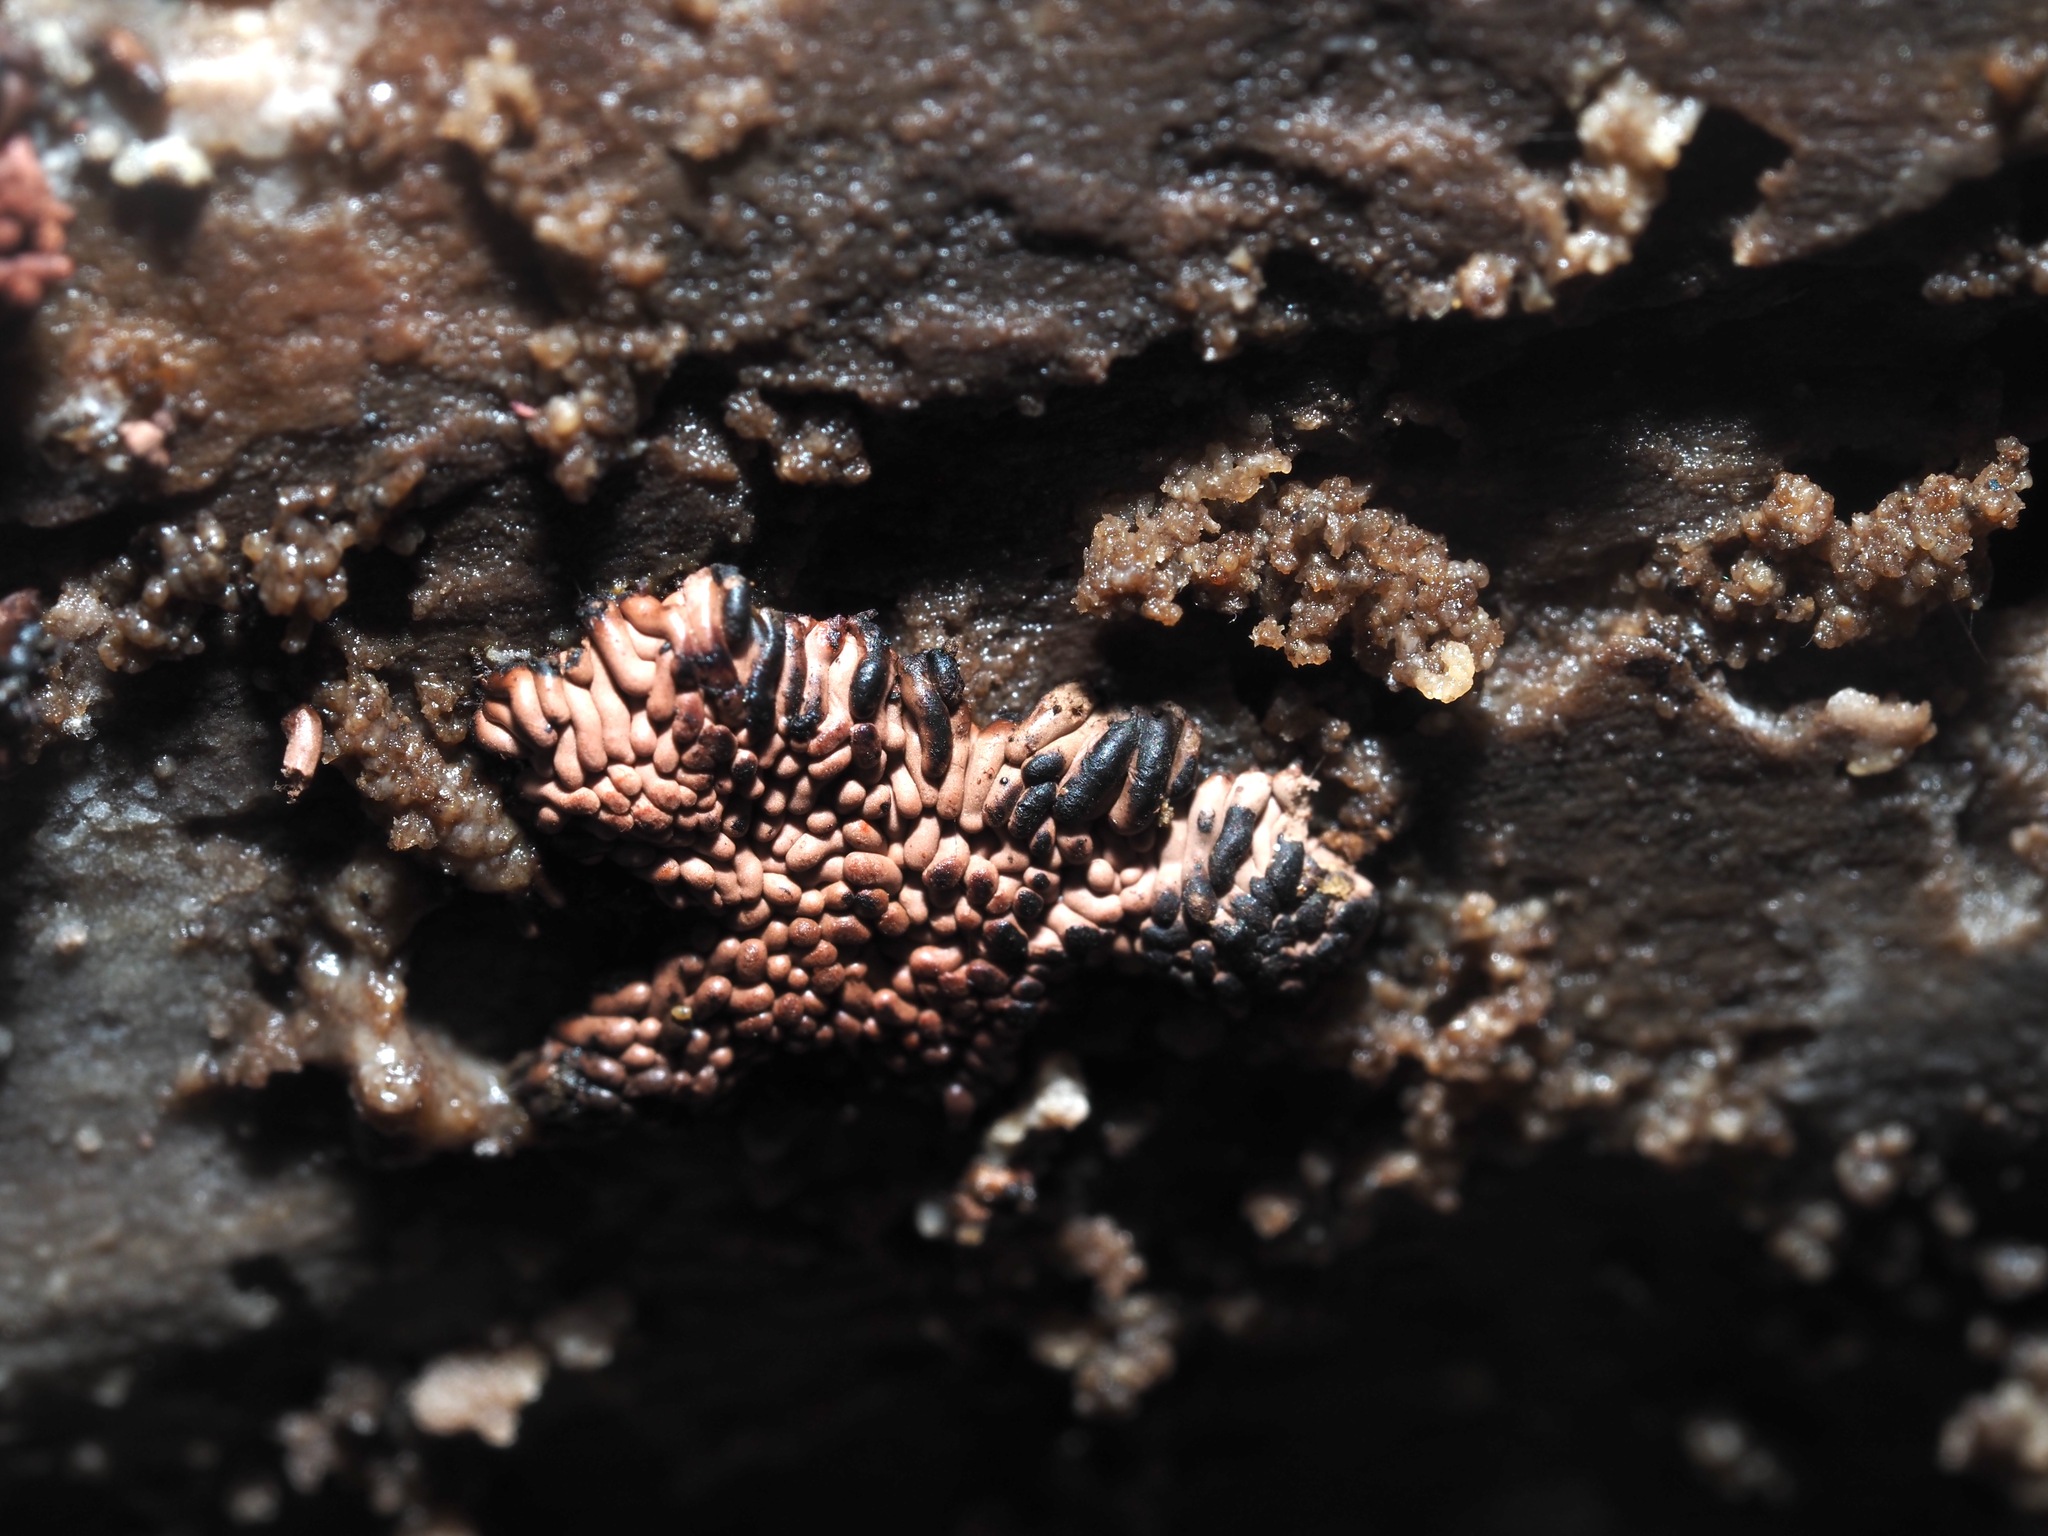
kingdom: Protozoa
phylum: Mycetozoa
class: Myxomycetes
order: Trichiales
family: Arcyriaceae
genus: Arcyria
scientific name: Arcyria stipata
